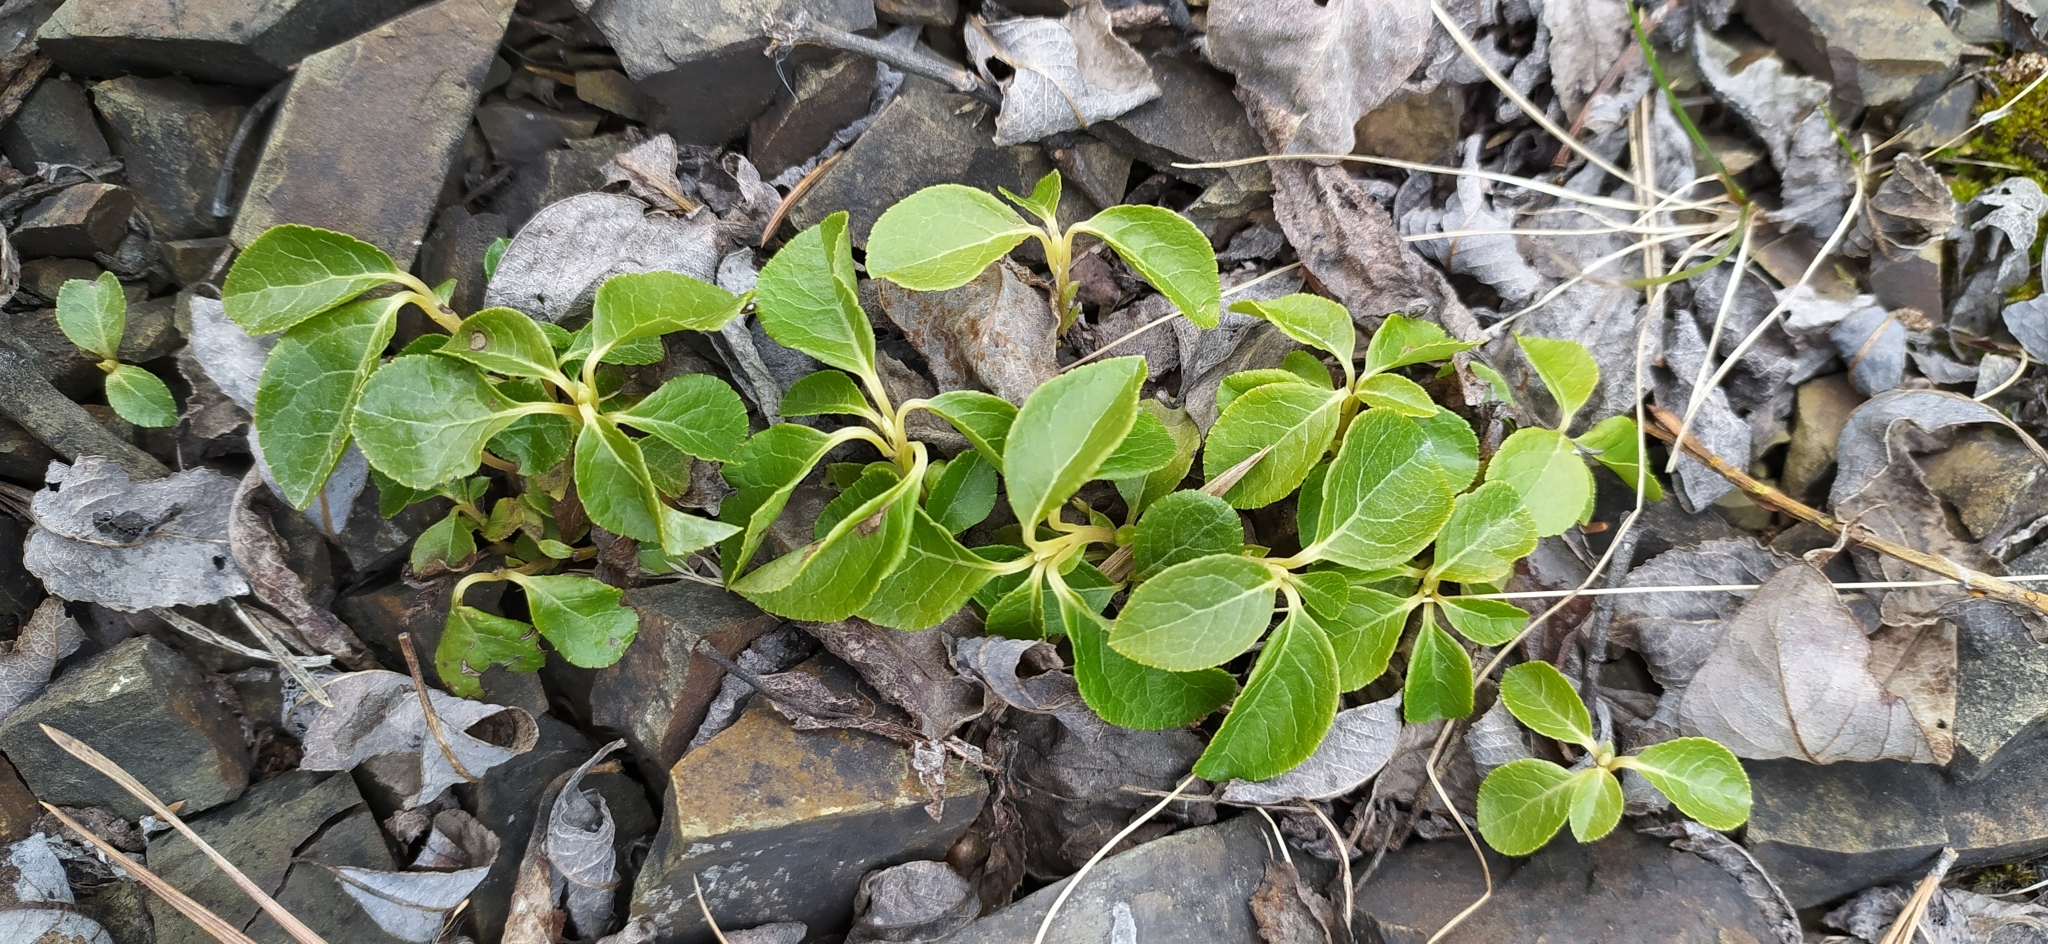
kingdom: Plantae
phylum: Tracheophyta
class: Magnoliopsida
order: Ericales
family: Ericaceae
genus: Orthilia
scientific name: Orthilia secunda
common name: One-sided orthilia
